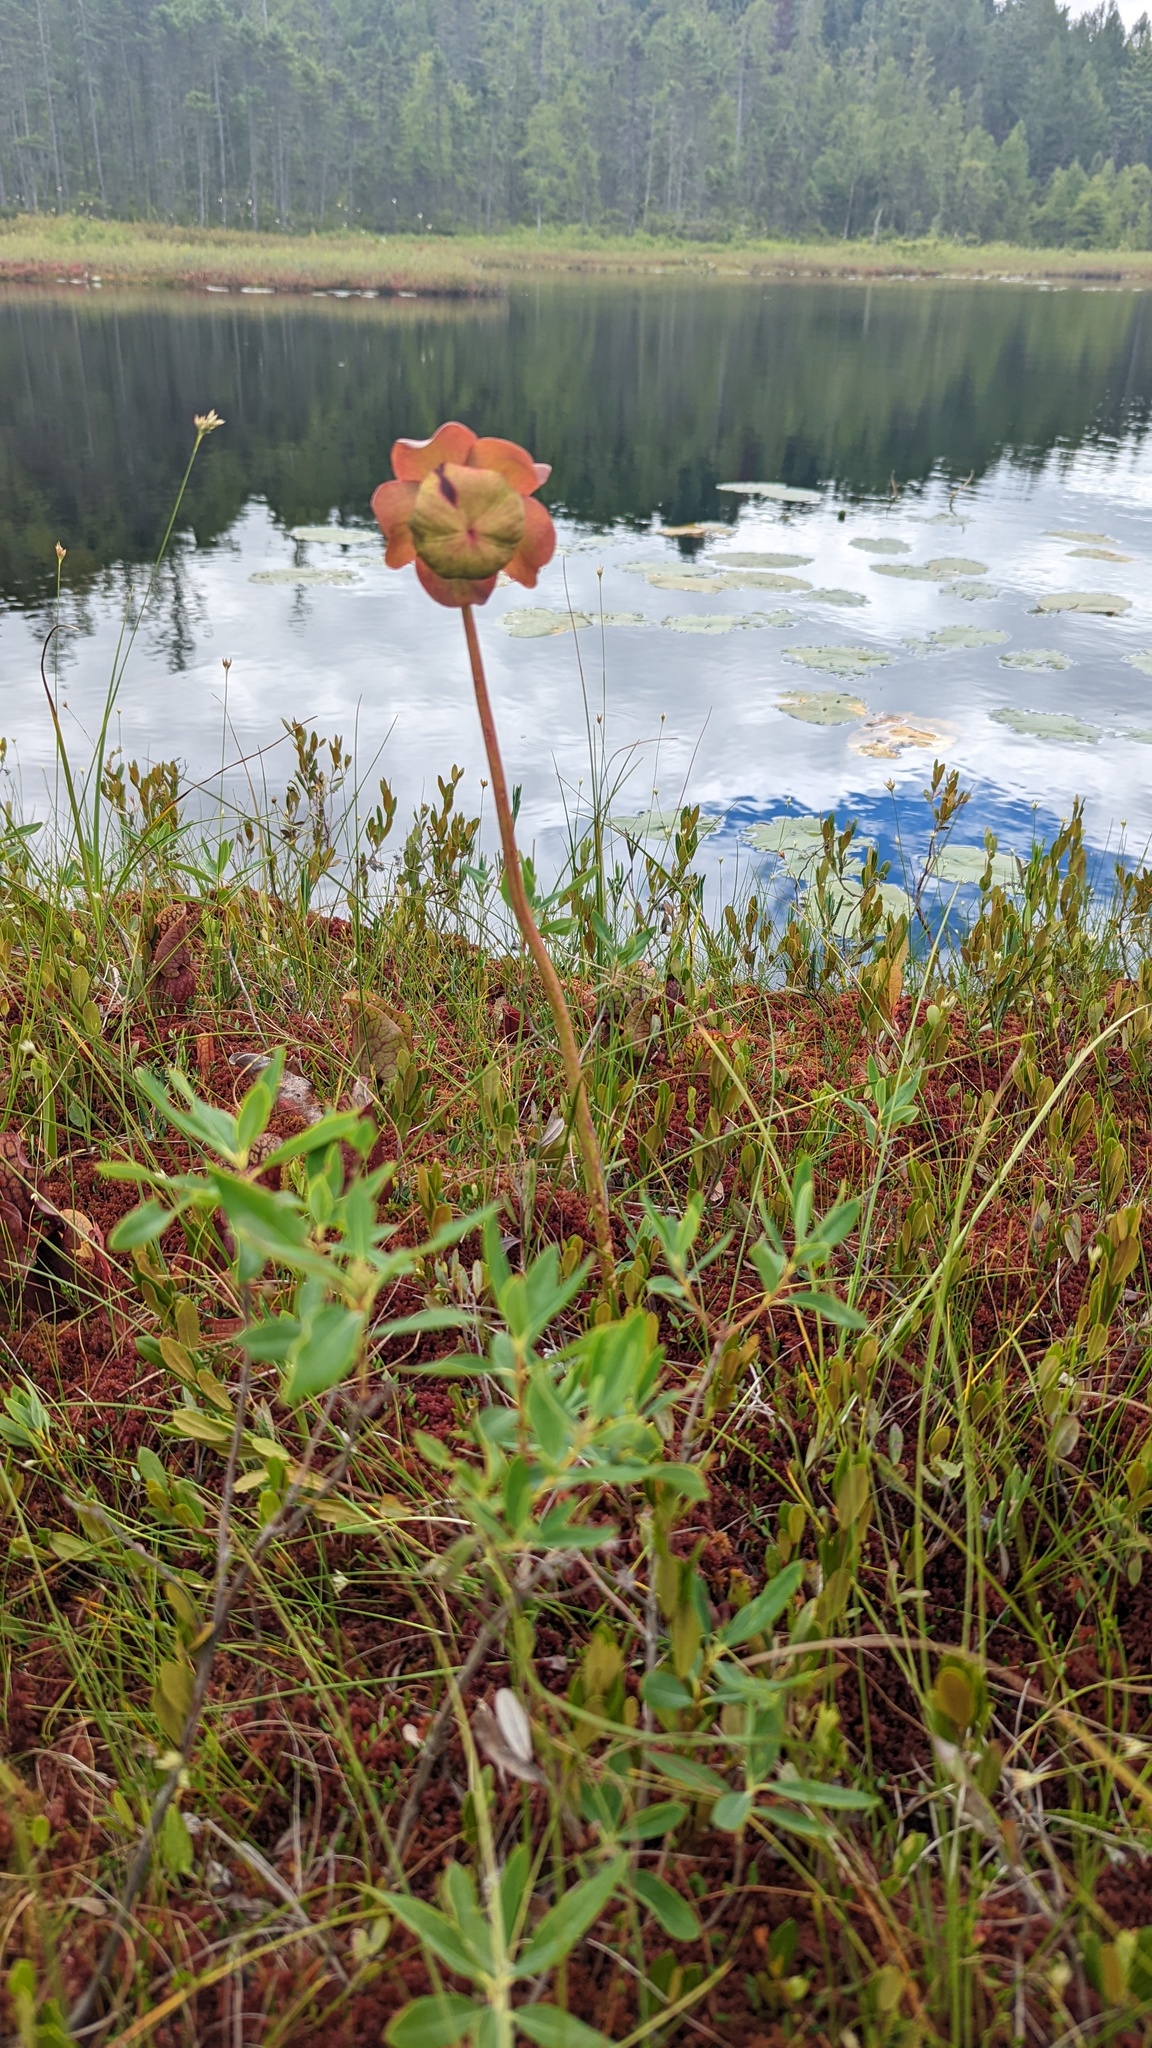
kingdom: Plantae
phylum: Tracheophyta
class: Magnoliopsida
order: Ericales
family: Sarraceniaceae
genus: Sarracenia
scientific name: Sarracenia purpurea
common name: Pitcherplant
